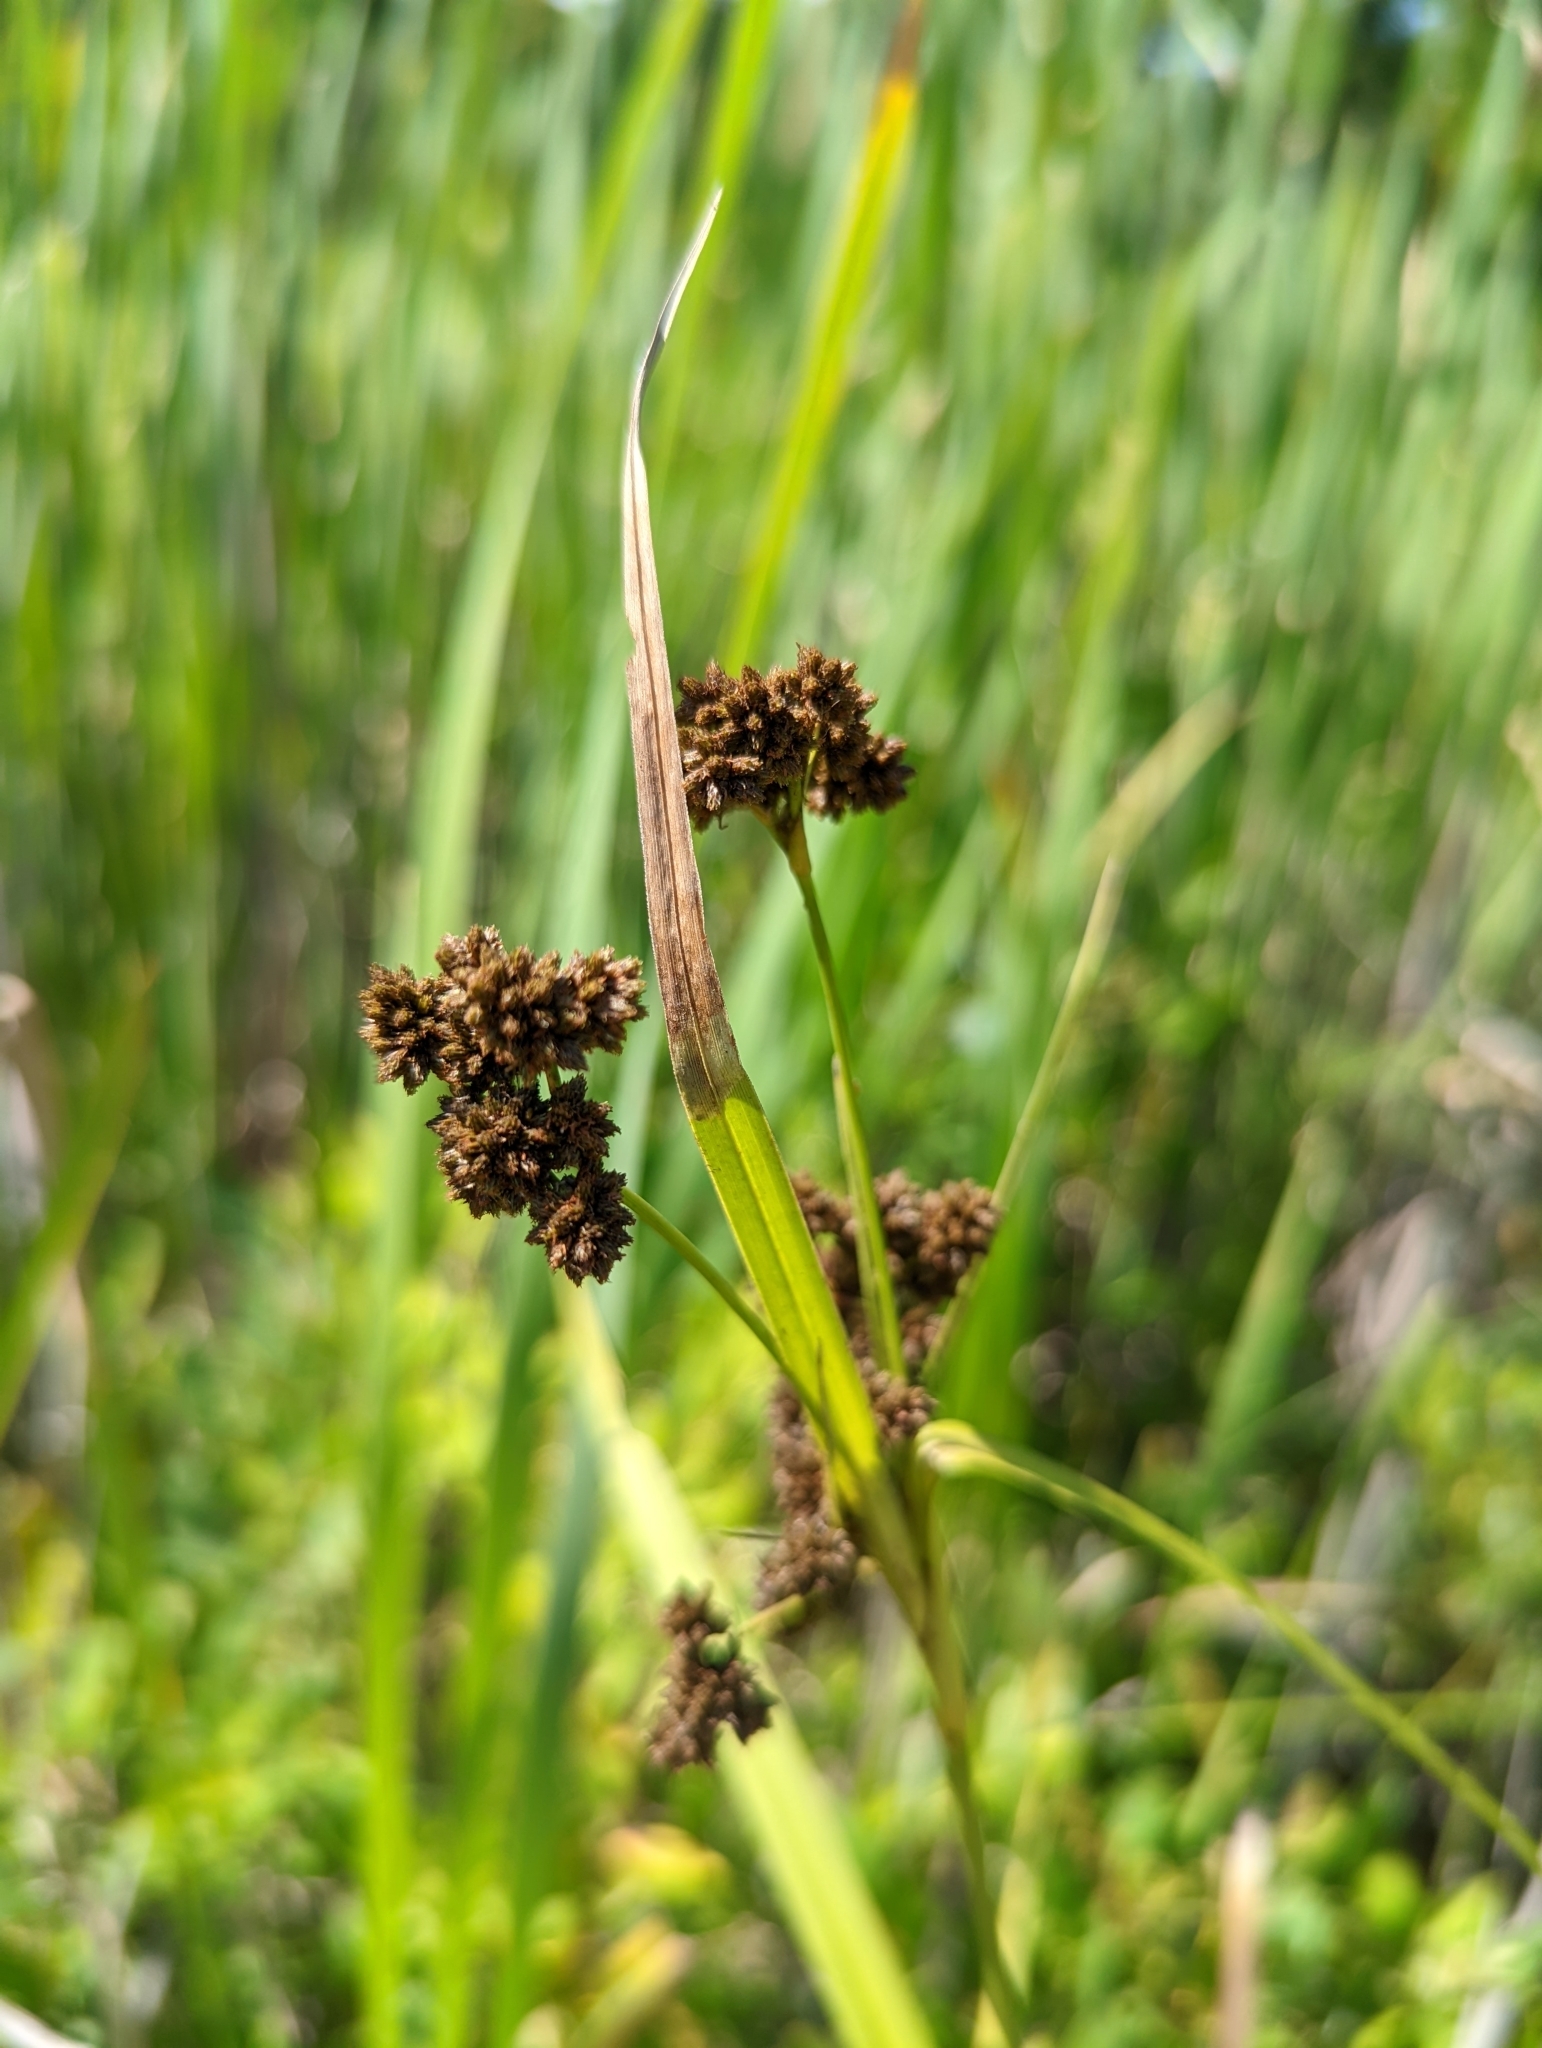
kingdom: Plantae
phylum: Tracheophyta
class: Liliopsida
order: Poales
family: Cyperaceae
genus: Scirpus
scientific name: Scirpus atrovirens
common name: Black bulrush
